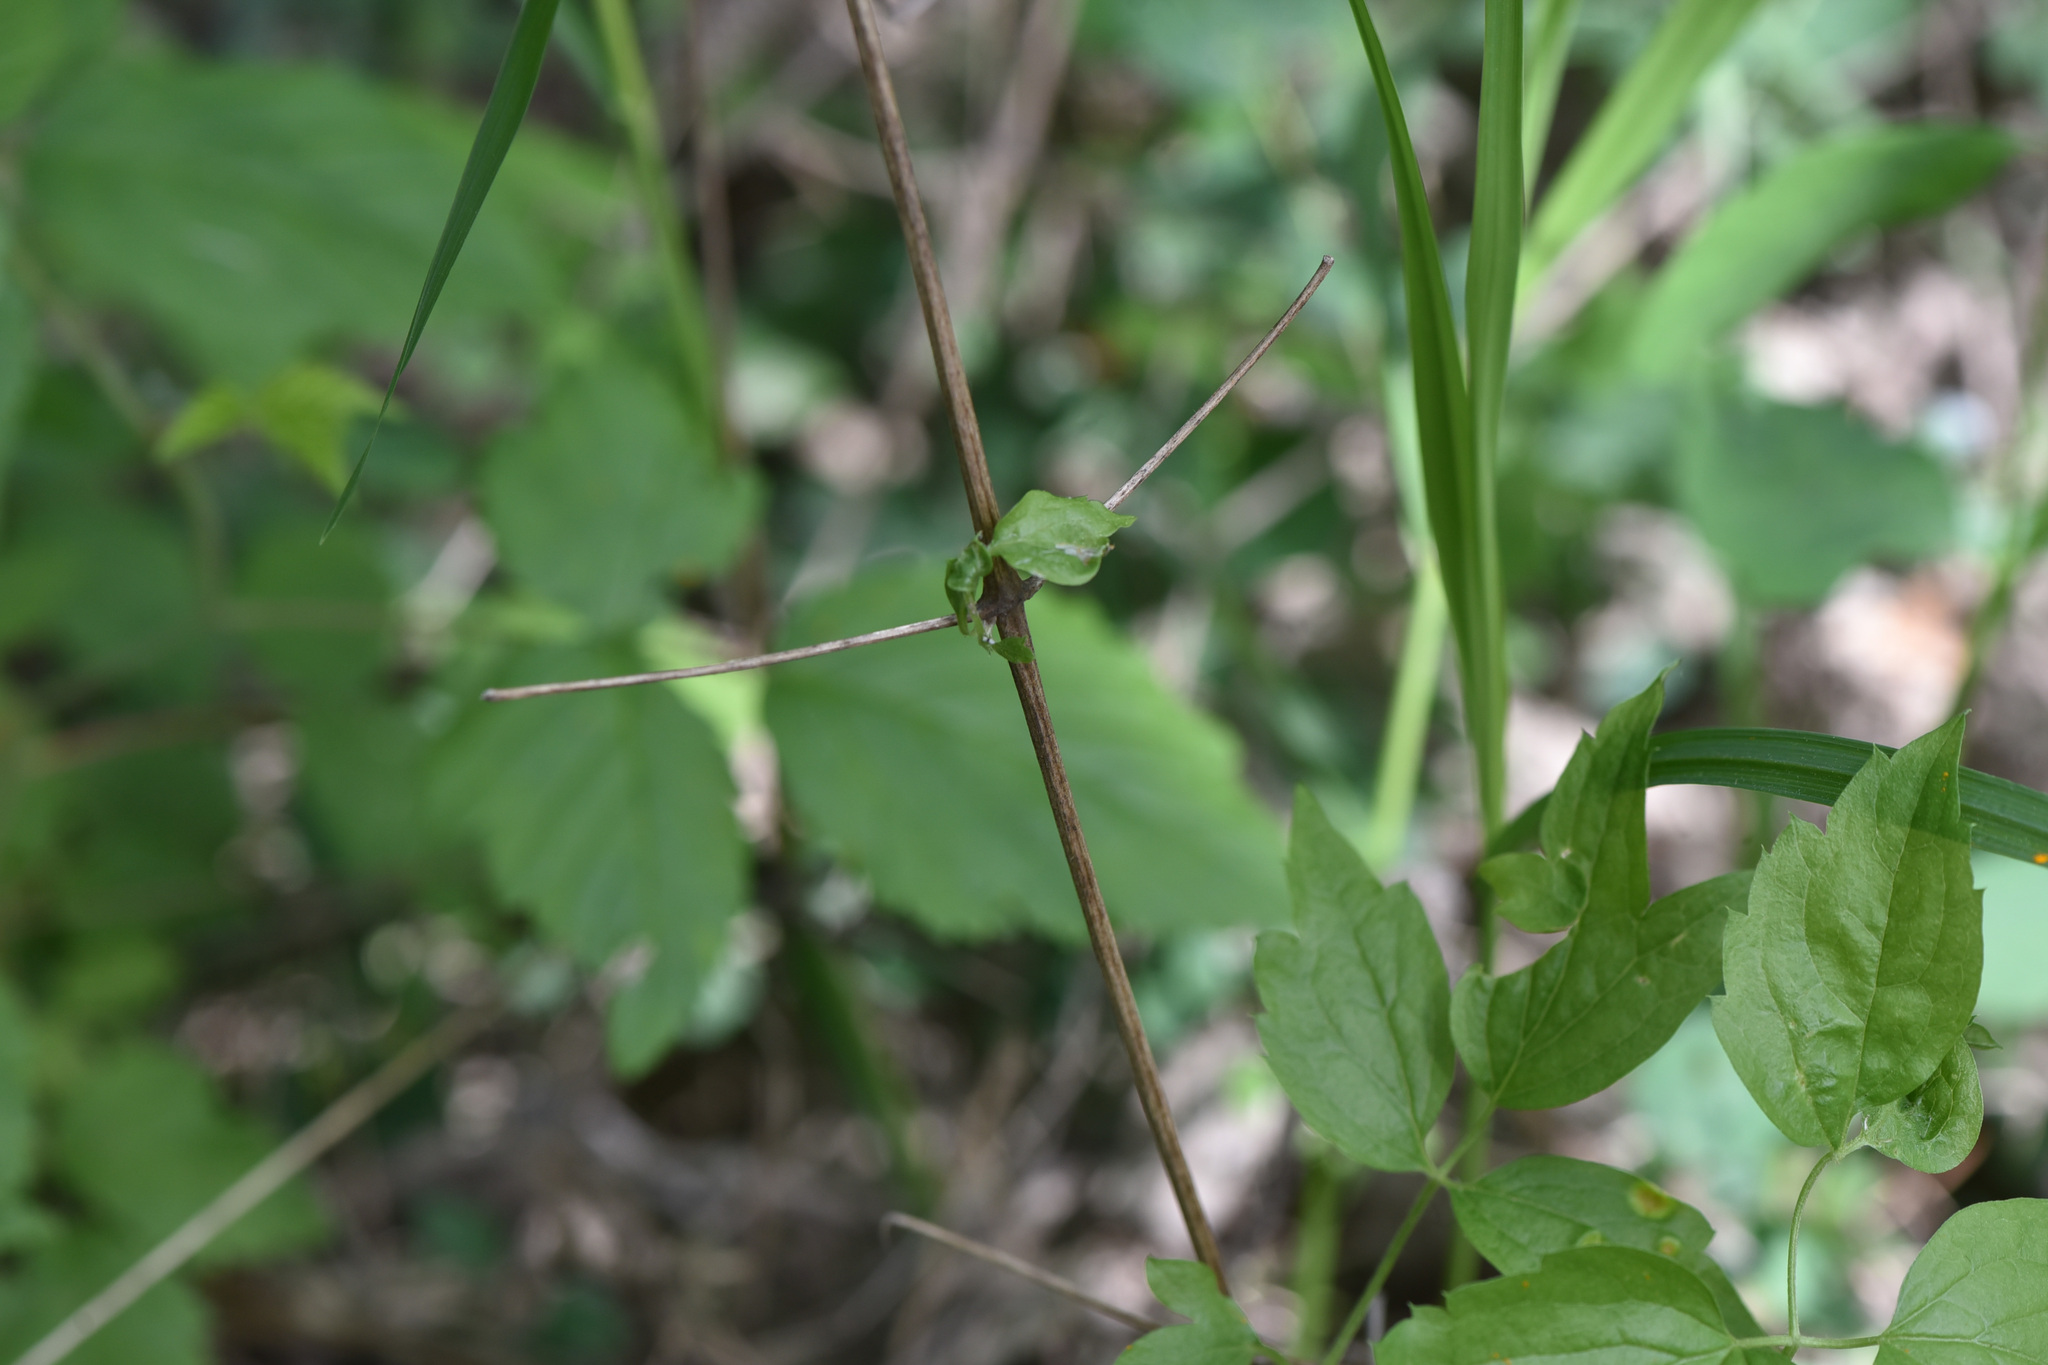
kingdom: Plantae
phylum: Tracheophyta
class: Magnoliopsida
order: Ranunculales
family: Ranunculaceae
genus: Clematis
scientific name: Clematis ligusticifolia
